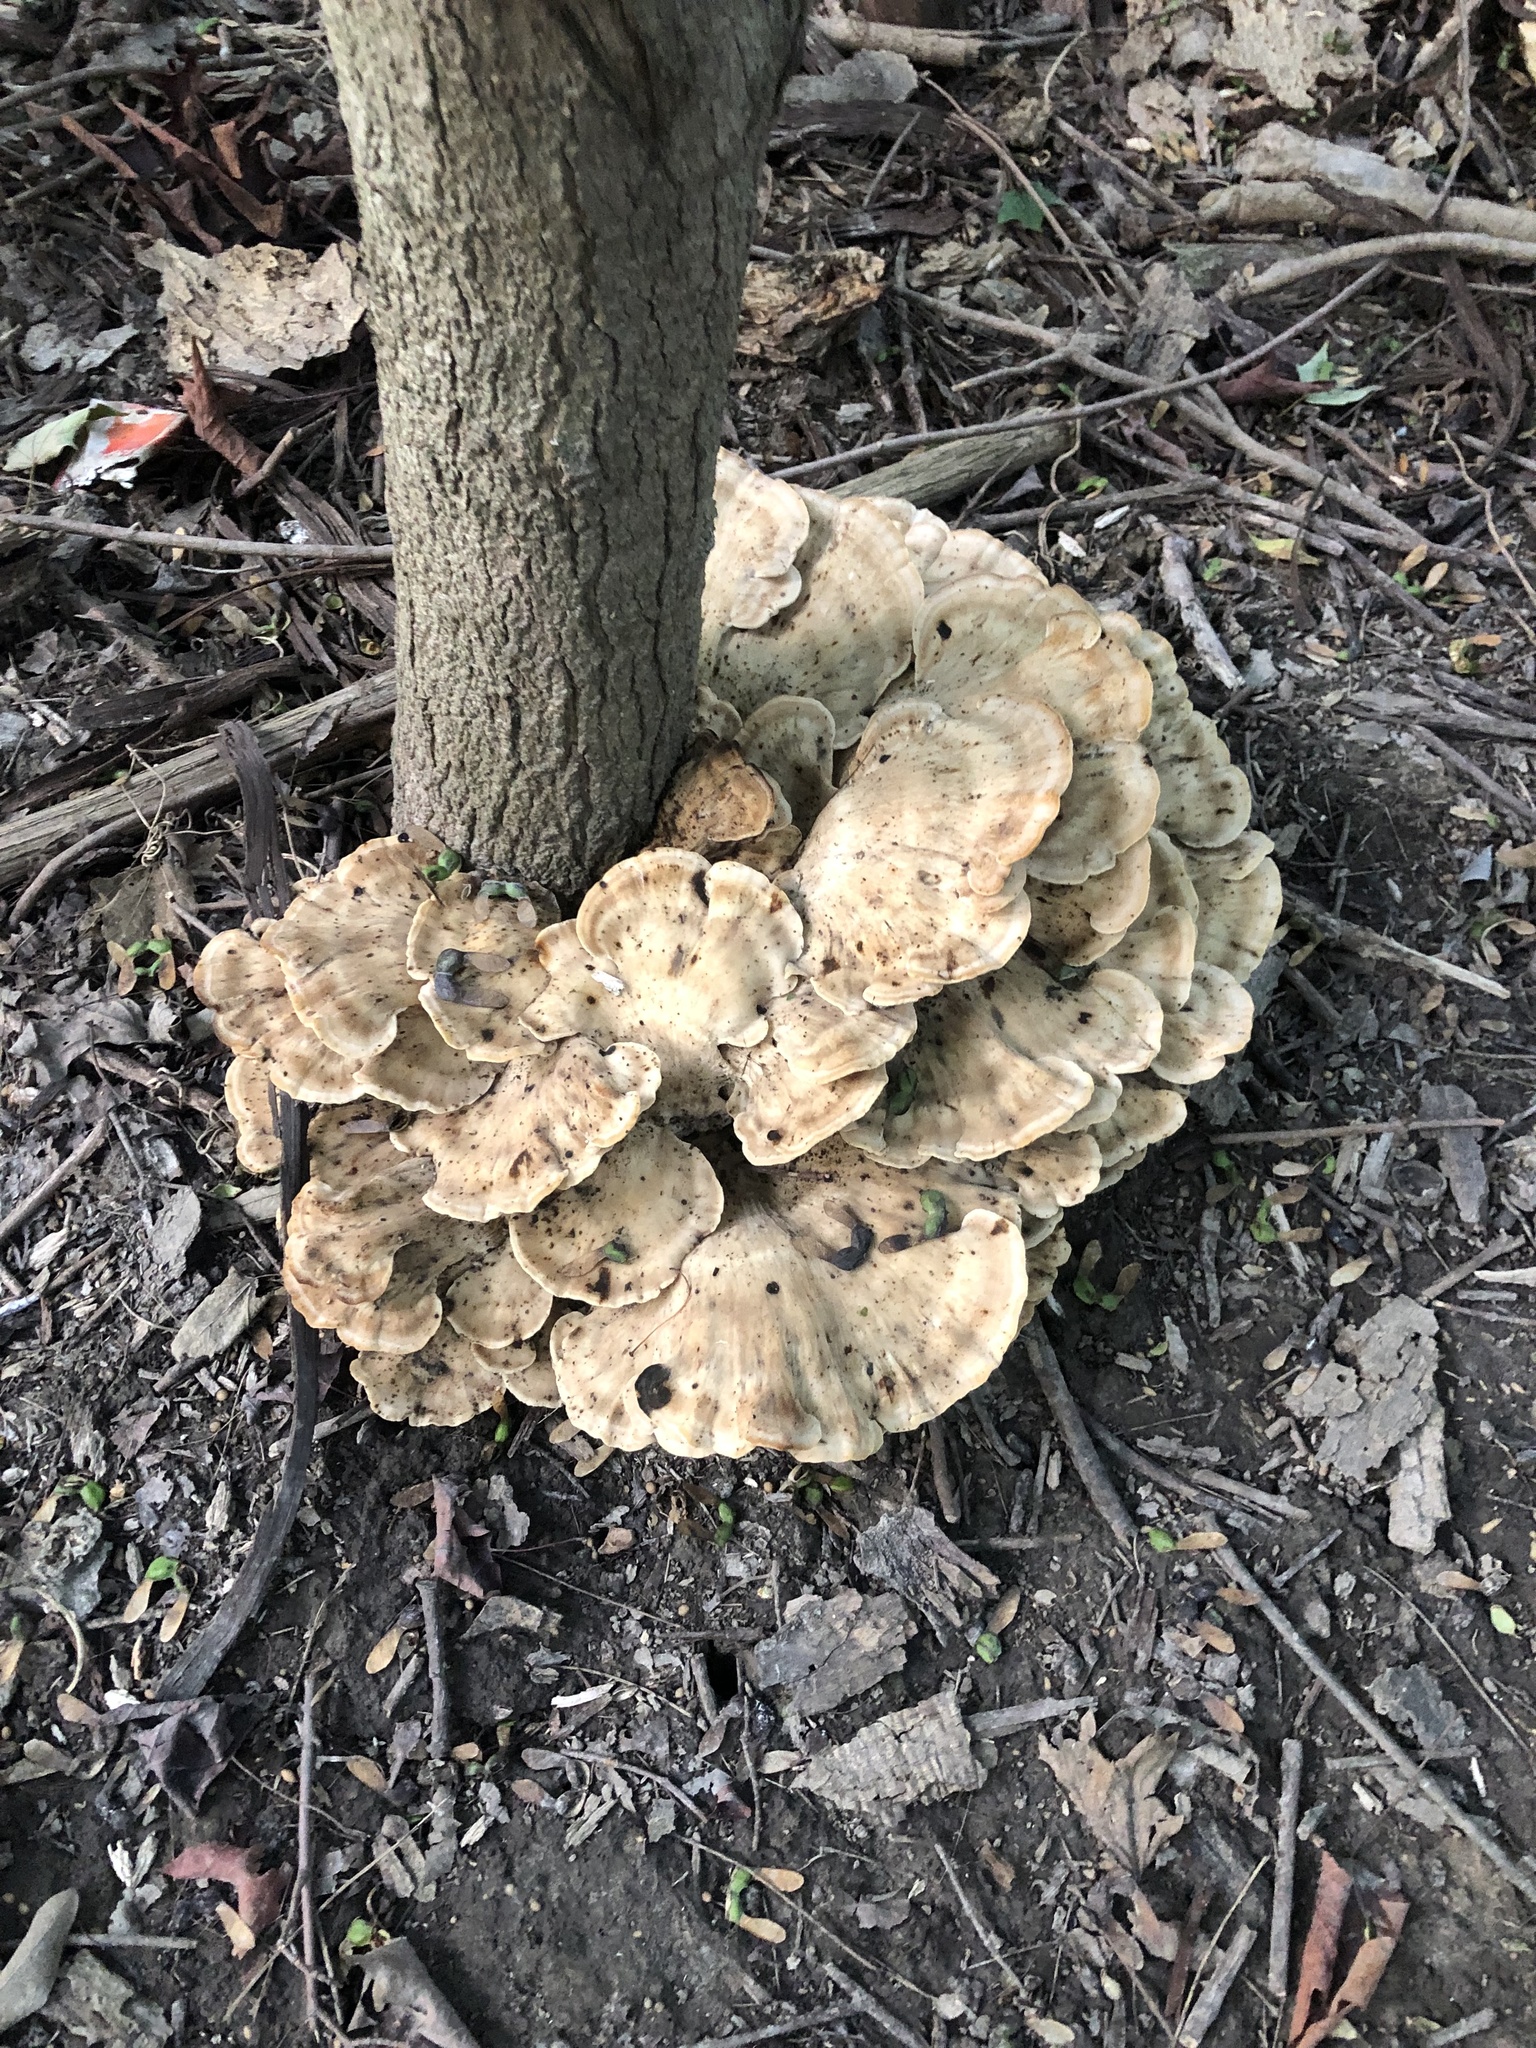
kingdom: Fungi
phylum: Basidiomycota
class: Agaricomycetes
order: Polyporales
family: Meripilaceae
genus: Meripilus
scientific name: Meripilus sumstinei
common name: Black-staining polypore
